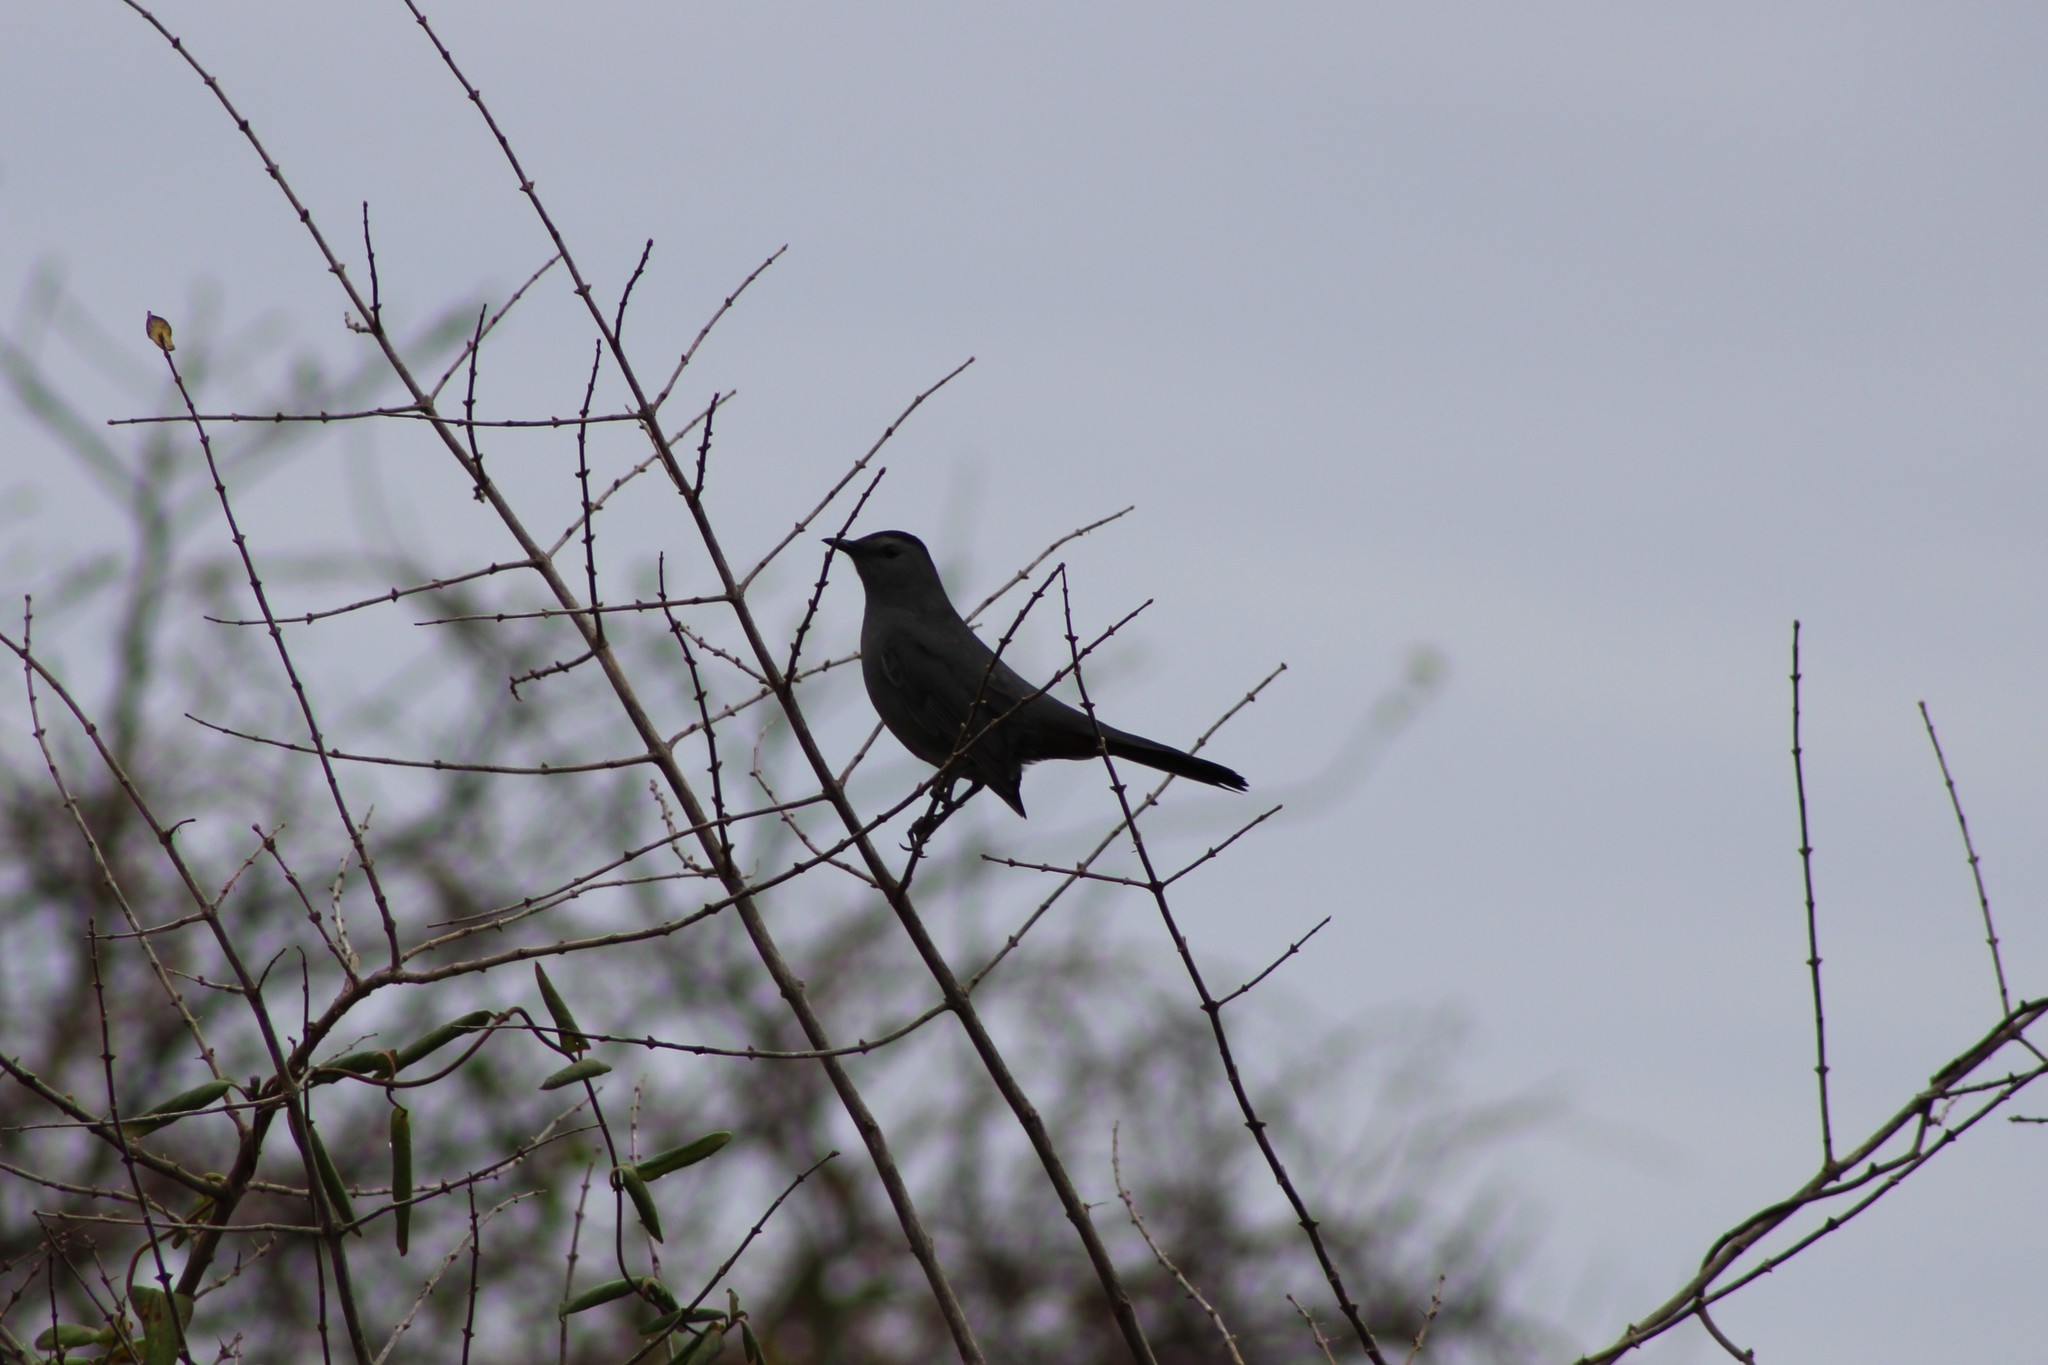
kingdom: Animalia
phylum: Chordata
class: Aves
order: Passeriformes
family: Mimidae
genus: Dumetella
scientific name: Dumetella carolinensis
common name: Gray catbird
